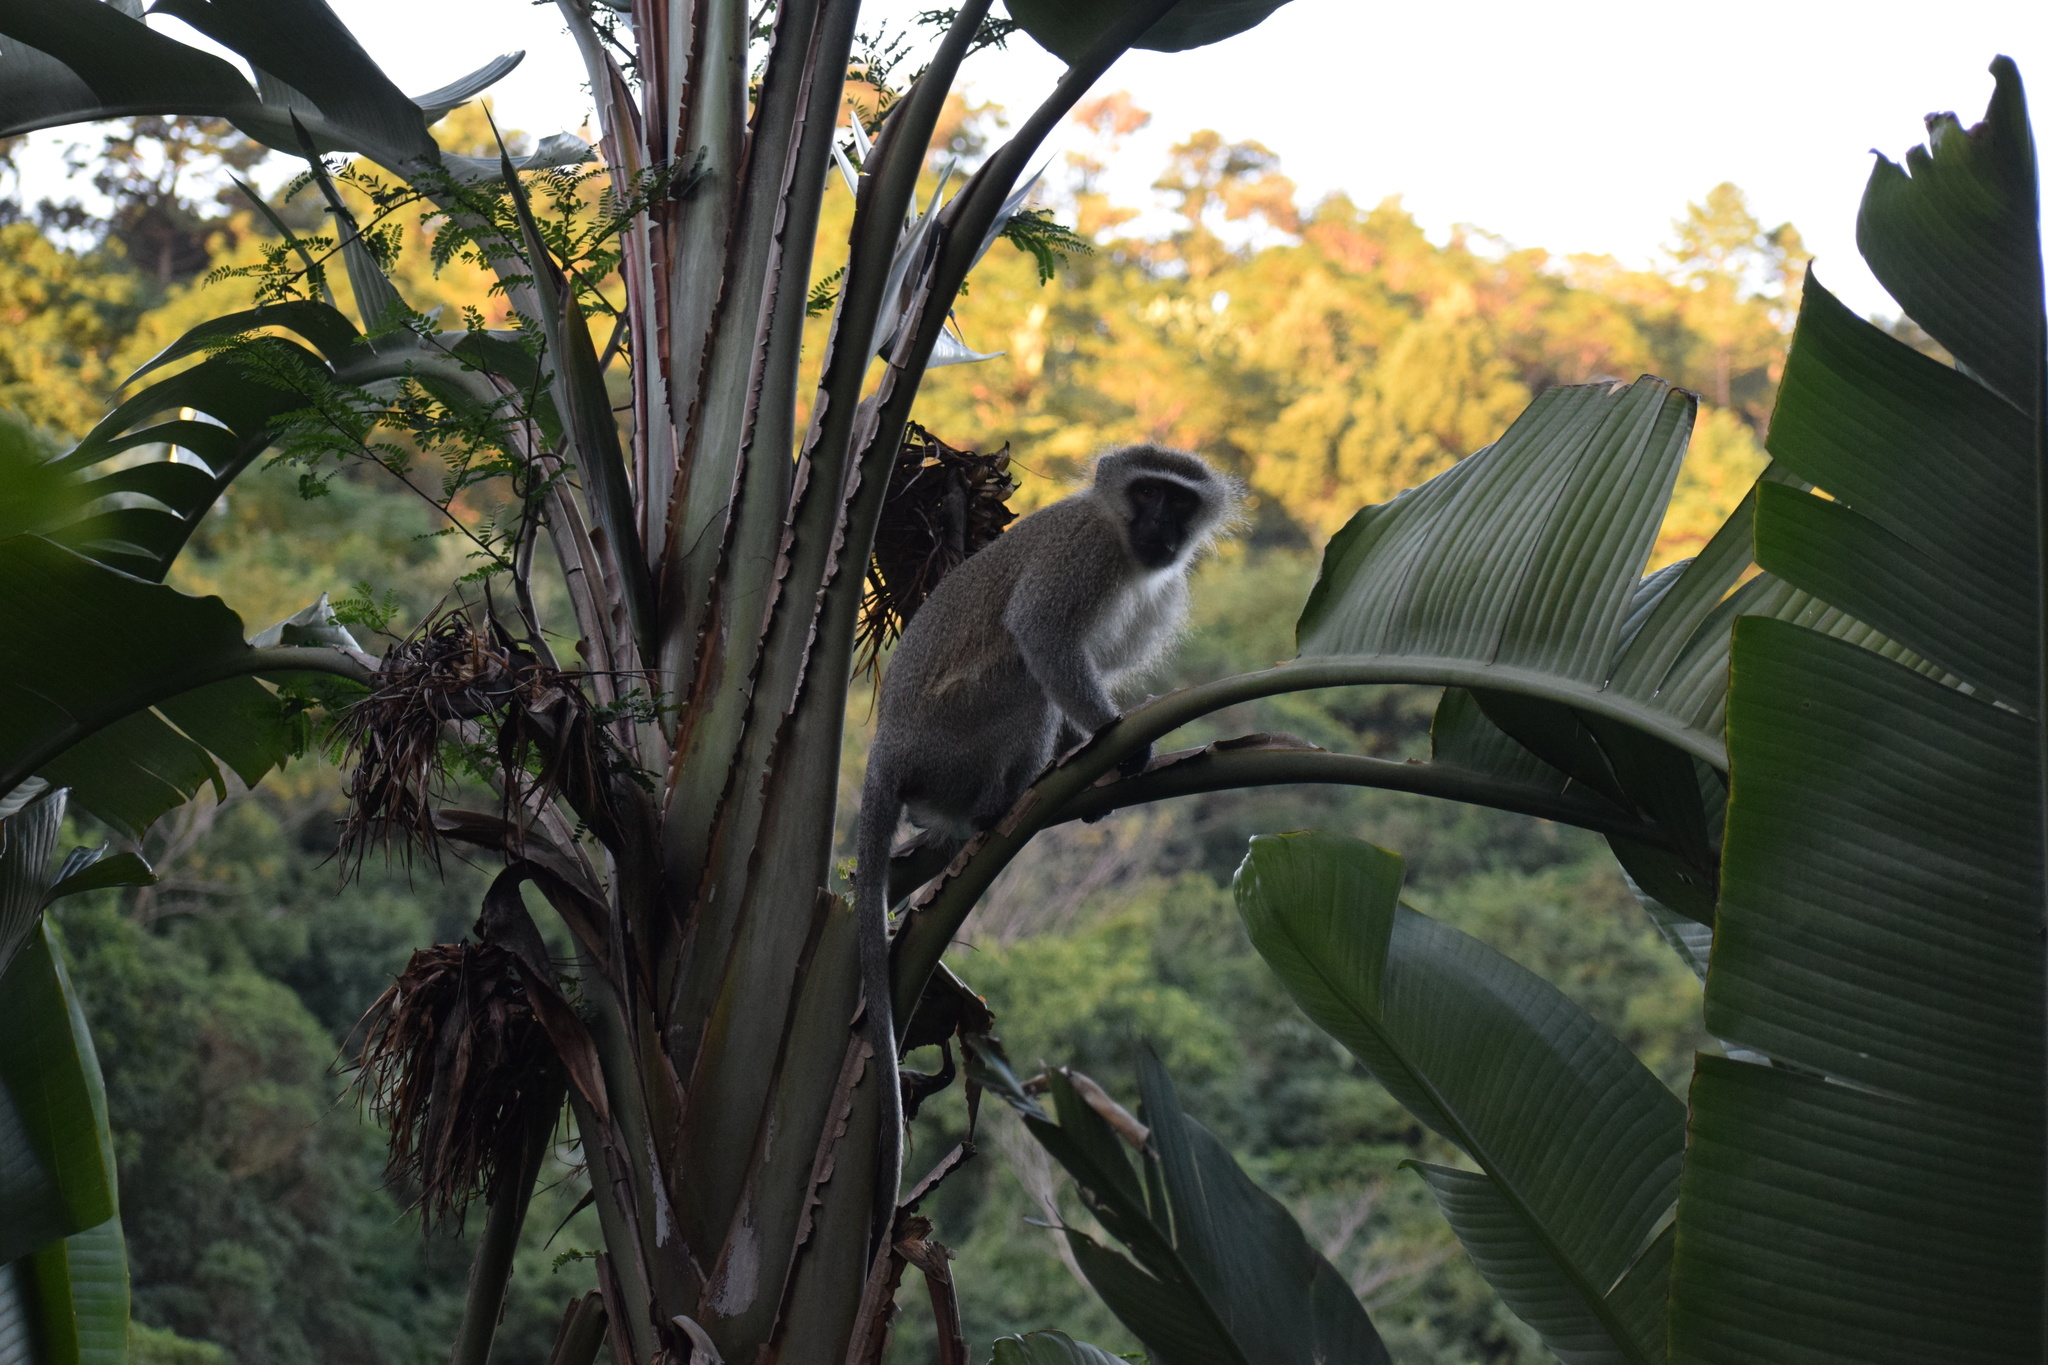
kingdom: Animalia
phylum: Chordata
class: Mammalia
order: Primates
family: Cercopithecidae
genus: Chlorocebus
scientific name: Chlorocebus pygerythrus
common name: Vervet monkey
